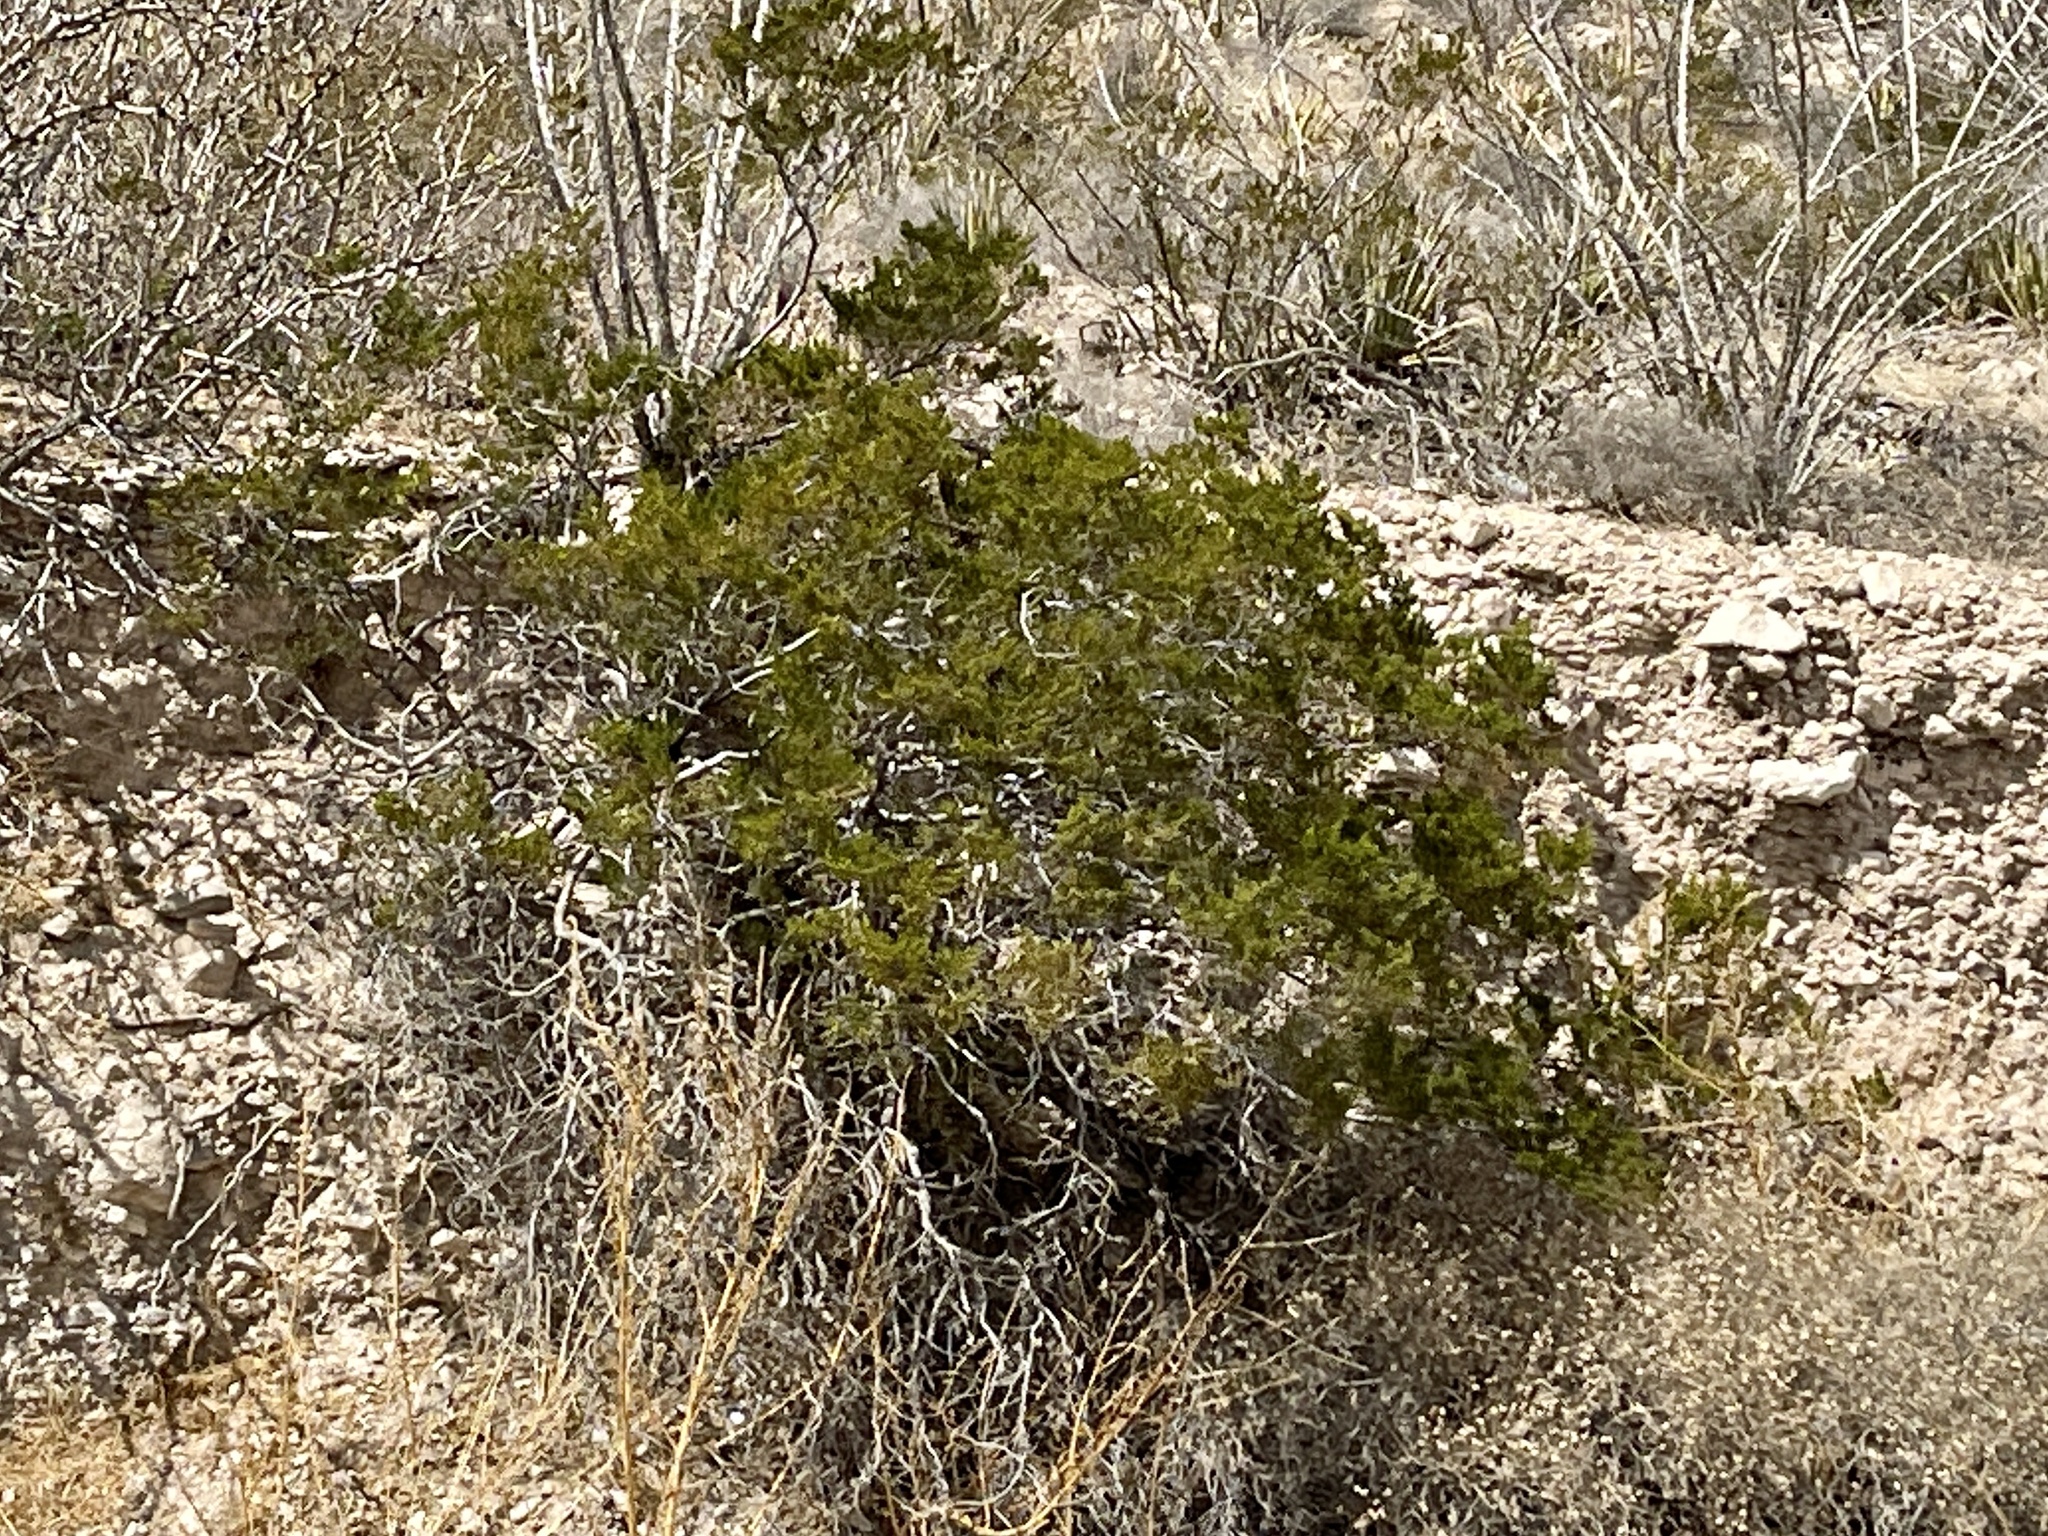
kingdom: Plantae
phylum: Tracheophyta
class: Magnoliopsida
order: Zygophyllales
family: Zygophyllaceae
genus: Larrea
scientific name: Larrea tridentata
